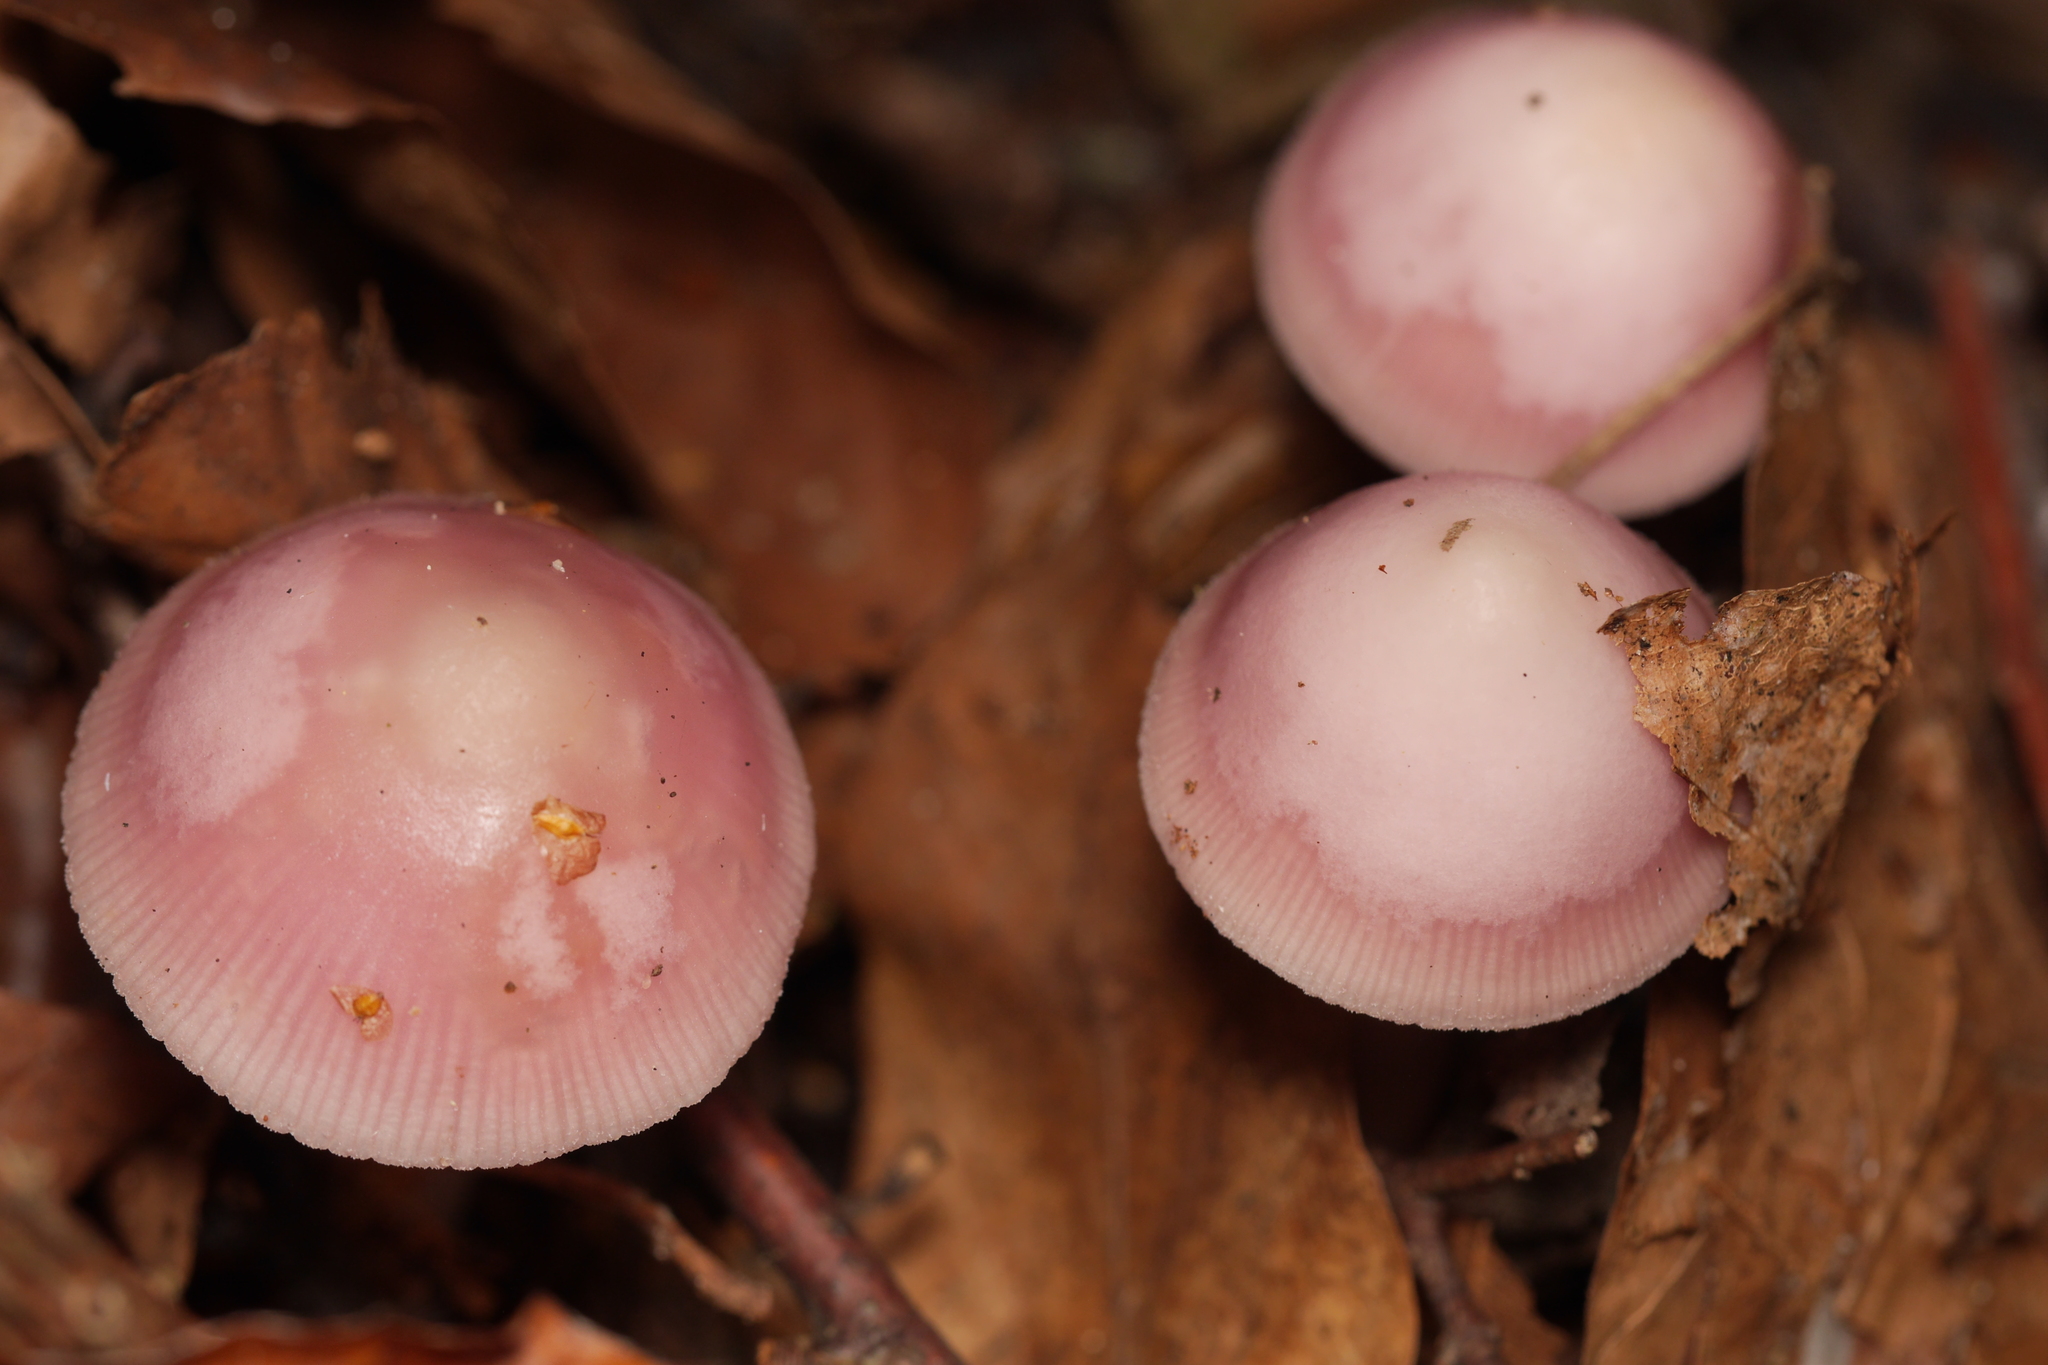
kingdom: Fungi
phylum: Basidiomycota
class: Agaricomycetes
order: Agaricales
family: Mycenaceae
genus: Mycena
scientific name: Mycena rosea
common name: Rosy bonnet
